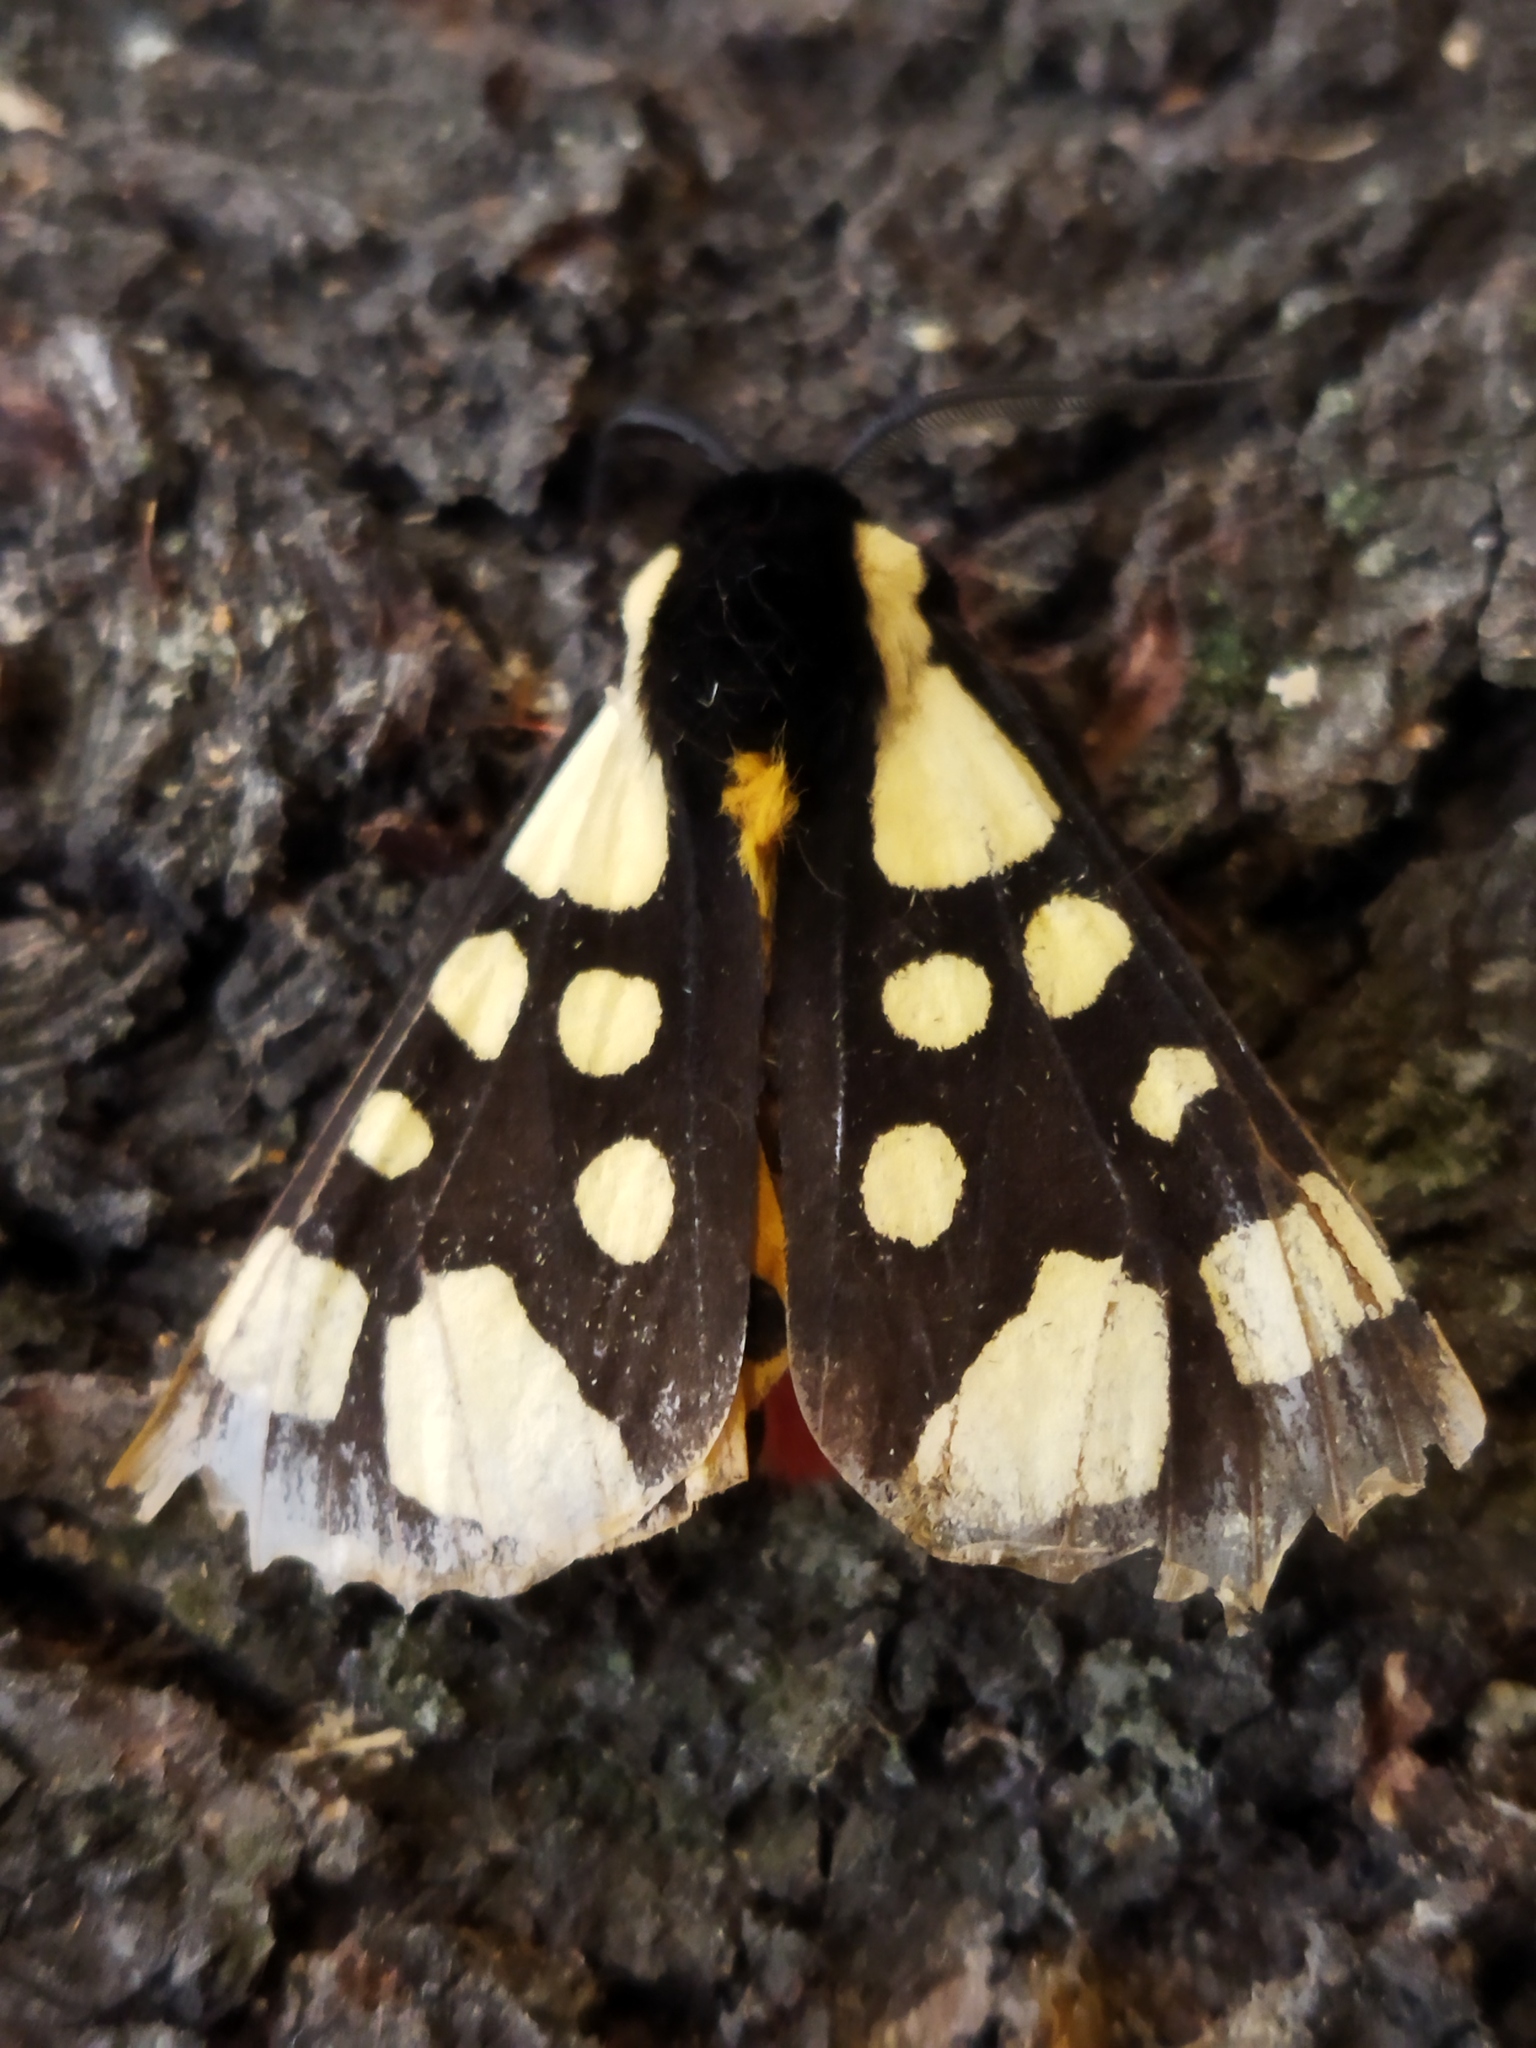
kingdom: Animalia
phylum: Arthropoda
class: Insecta
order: Lepidoptera
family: Erebidae
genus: Epicallia
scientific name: Epicallia villica
